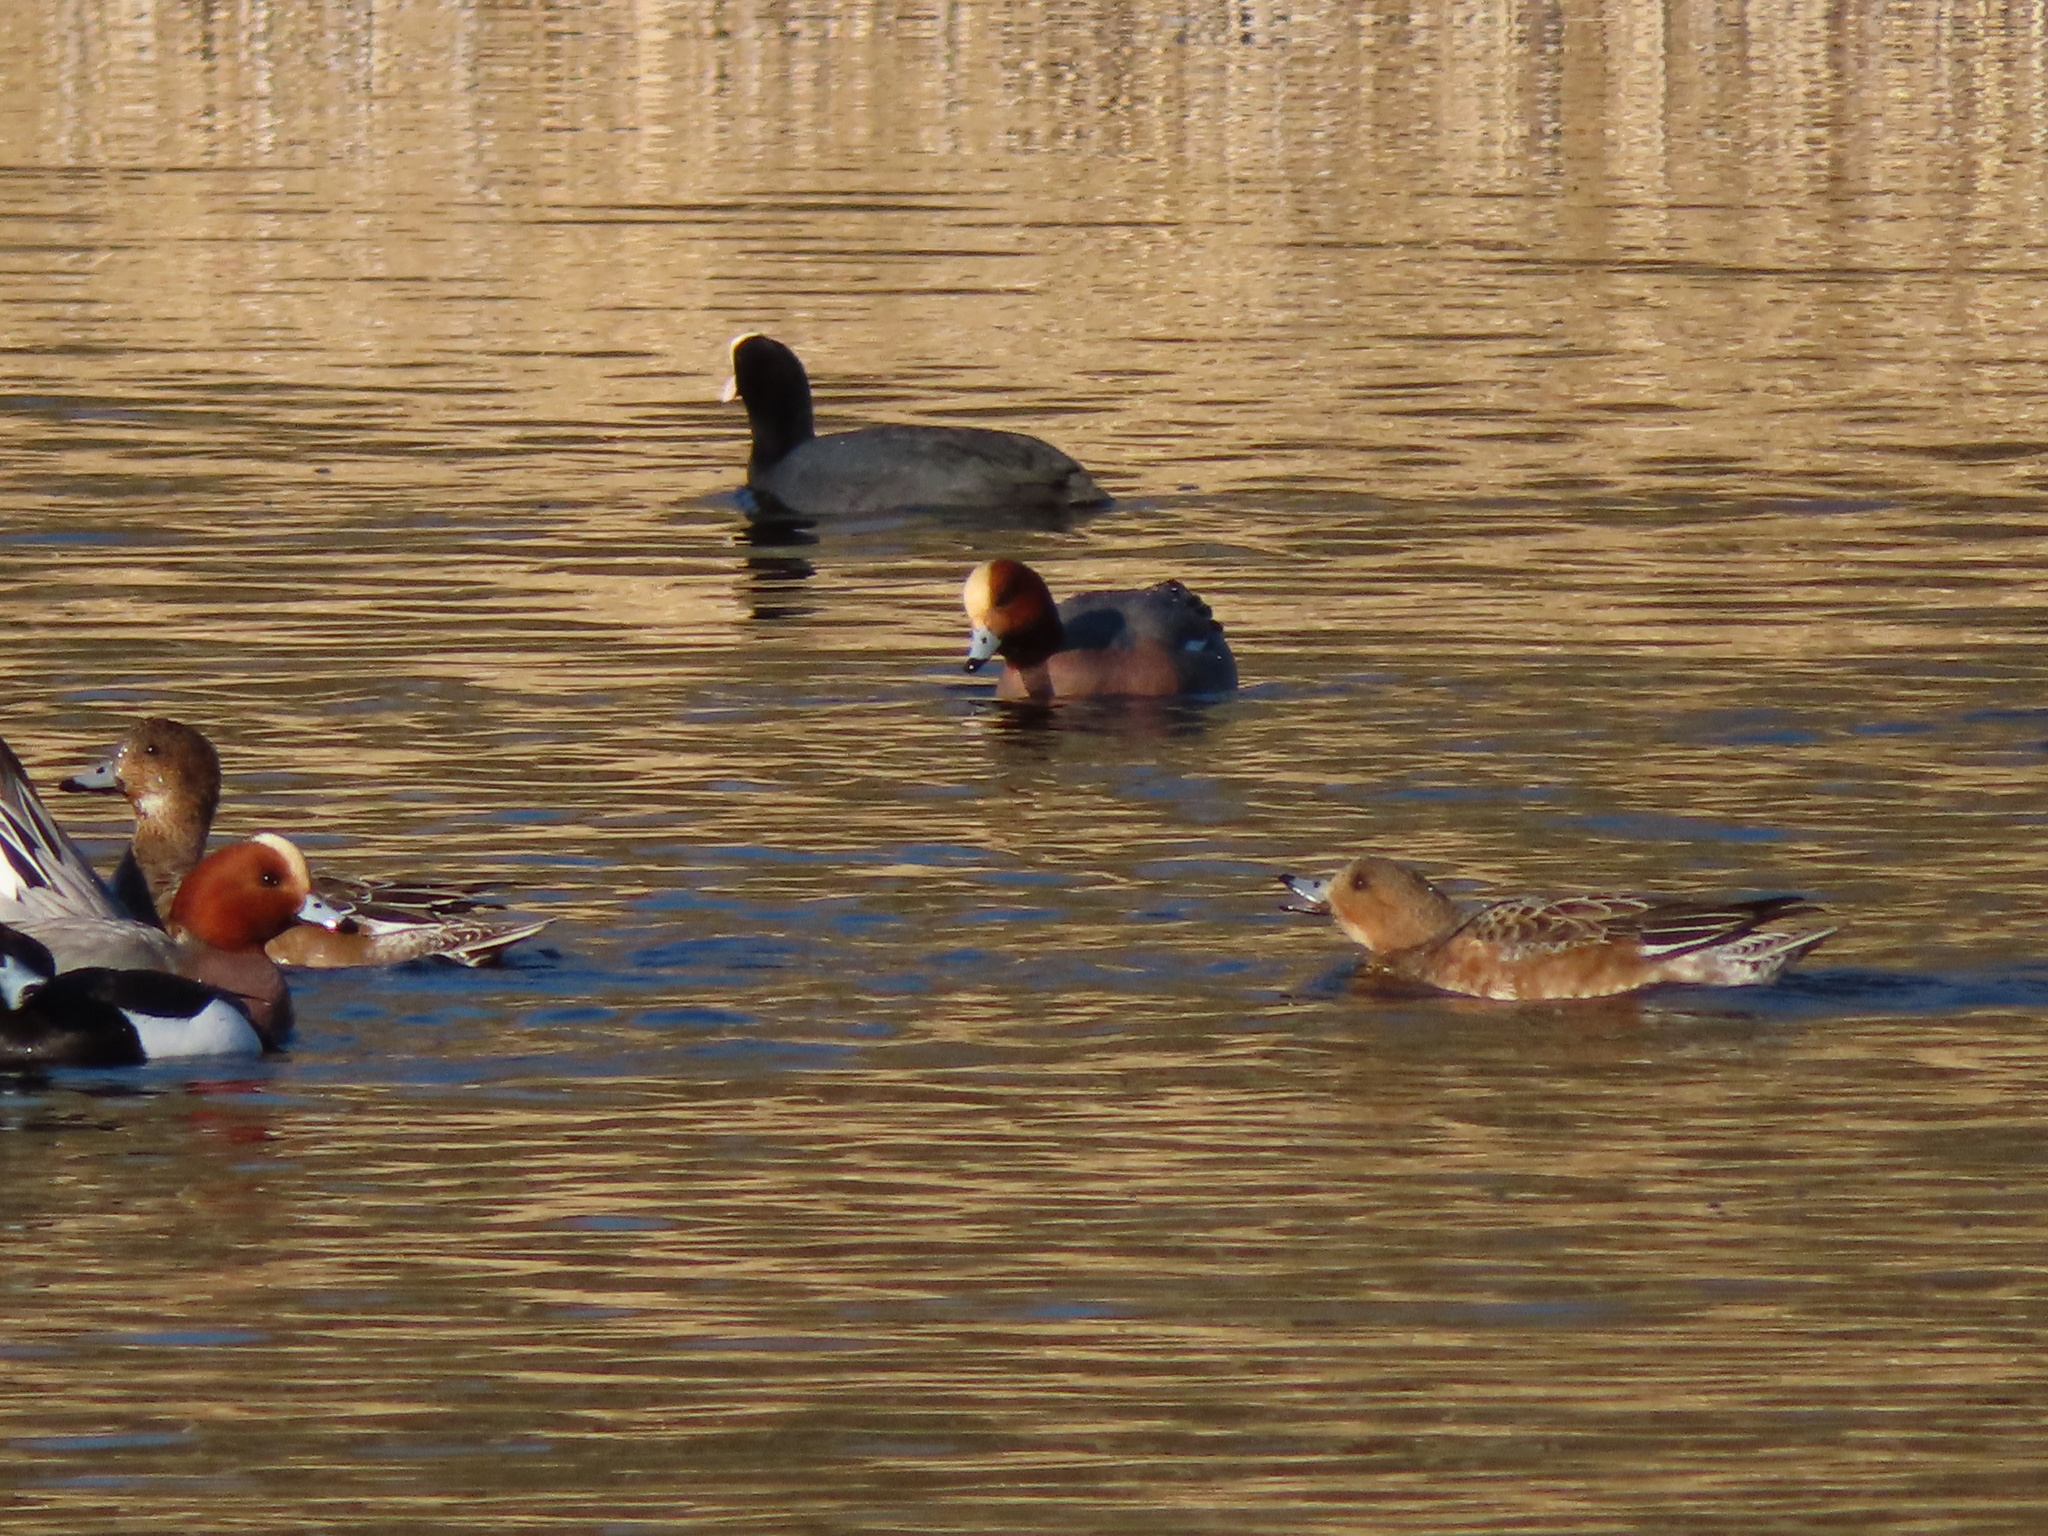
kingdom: Animalia
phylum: Chordata
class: Aves
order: Anseriformes
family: Anatidae
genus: Mareca
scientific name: Mareca penelope
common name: Eurasian wigeon
